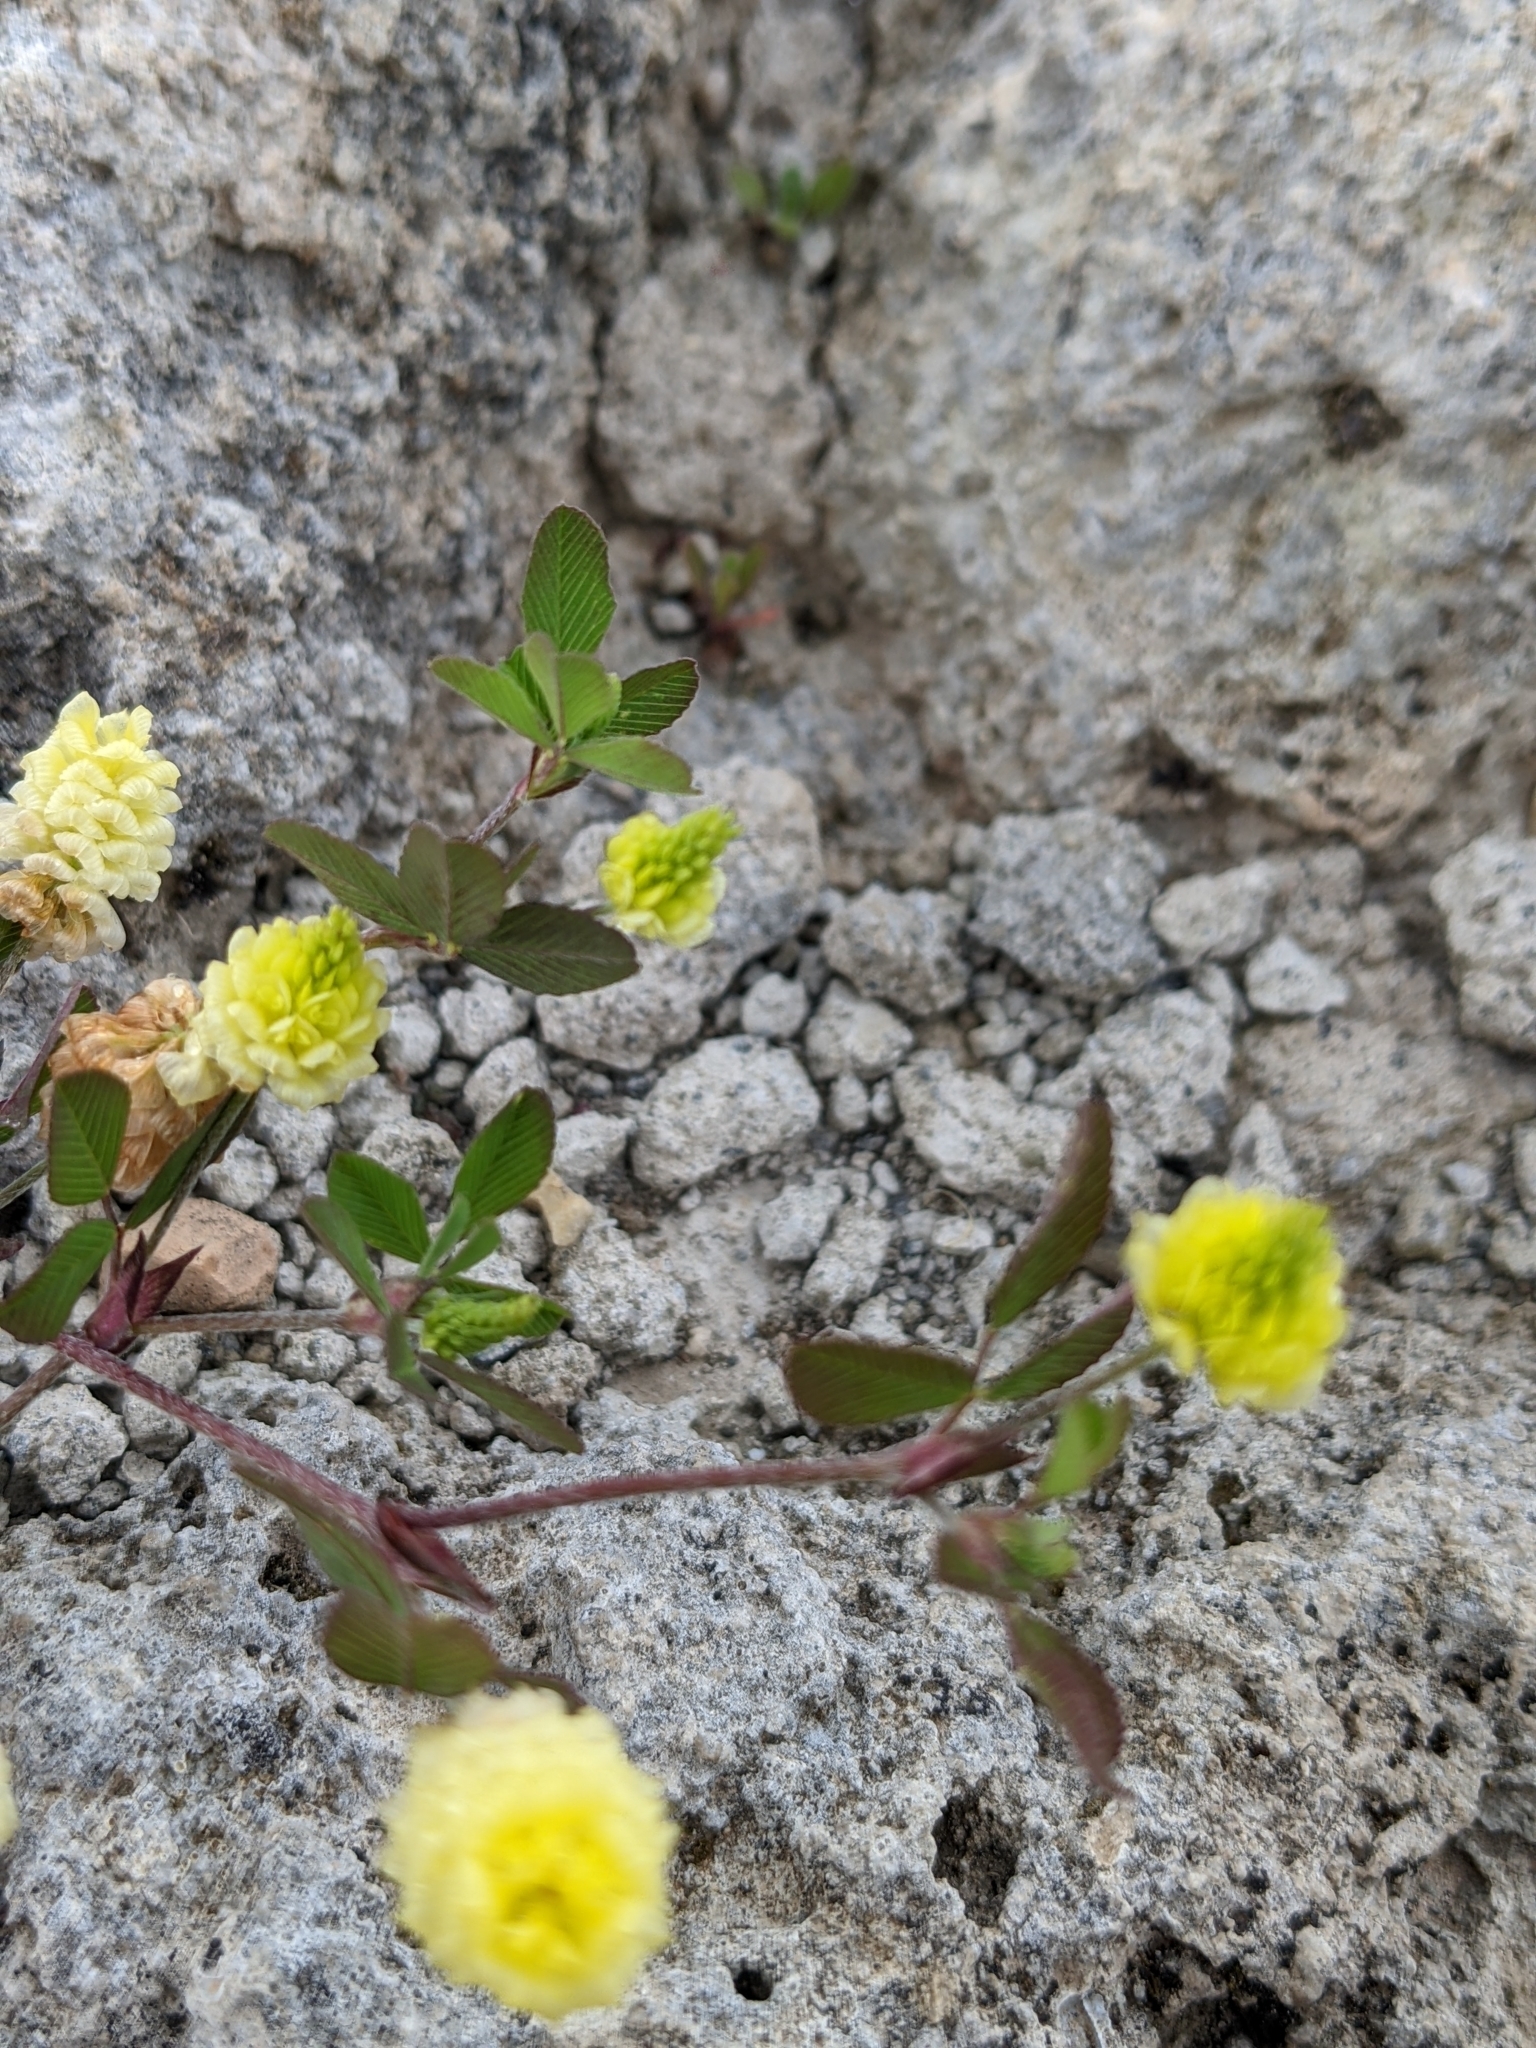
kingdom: Plantae
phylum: Tracheophyta
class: Magnoliopsida
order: Fabales
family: Fabaceae
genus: Trifolium
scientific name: Trifolium campestre
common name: Field clover
